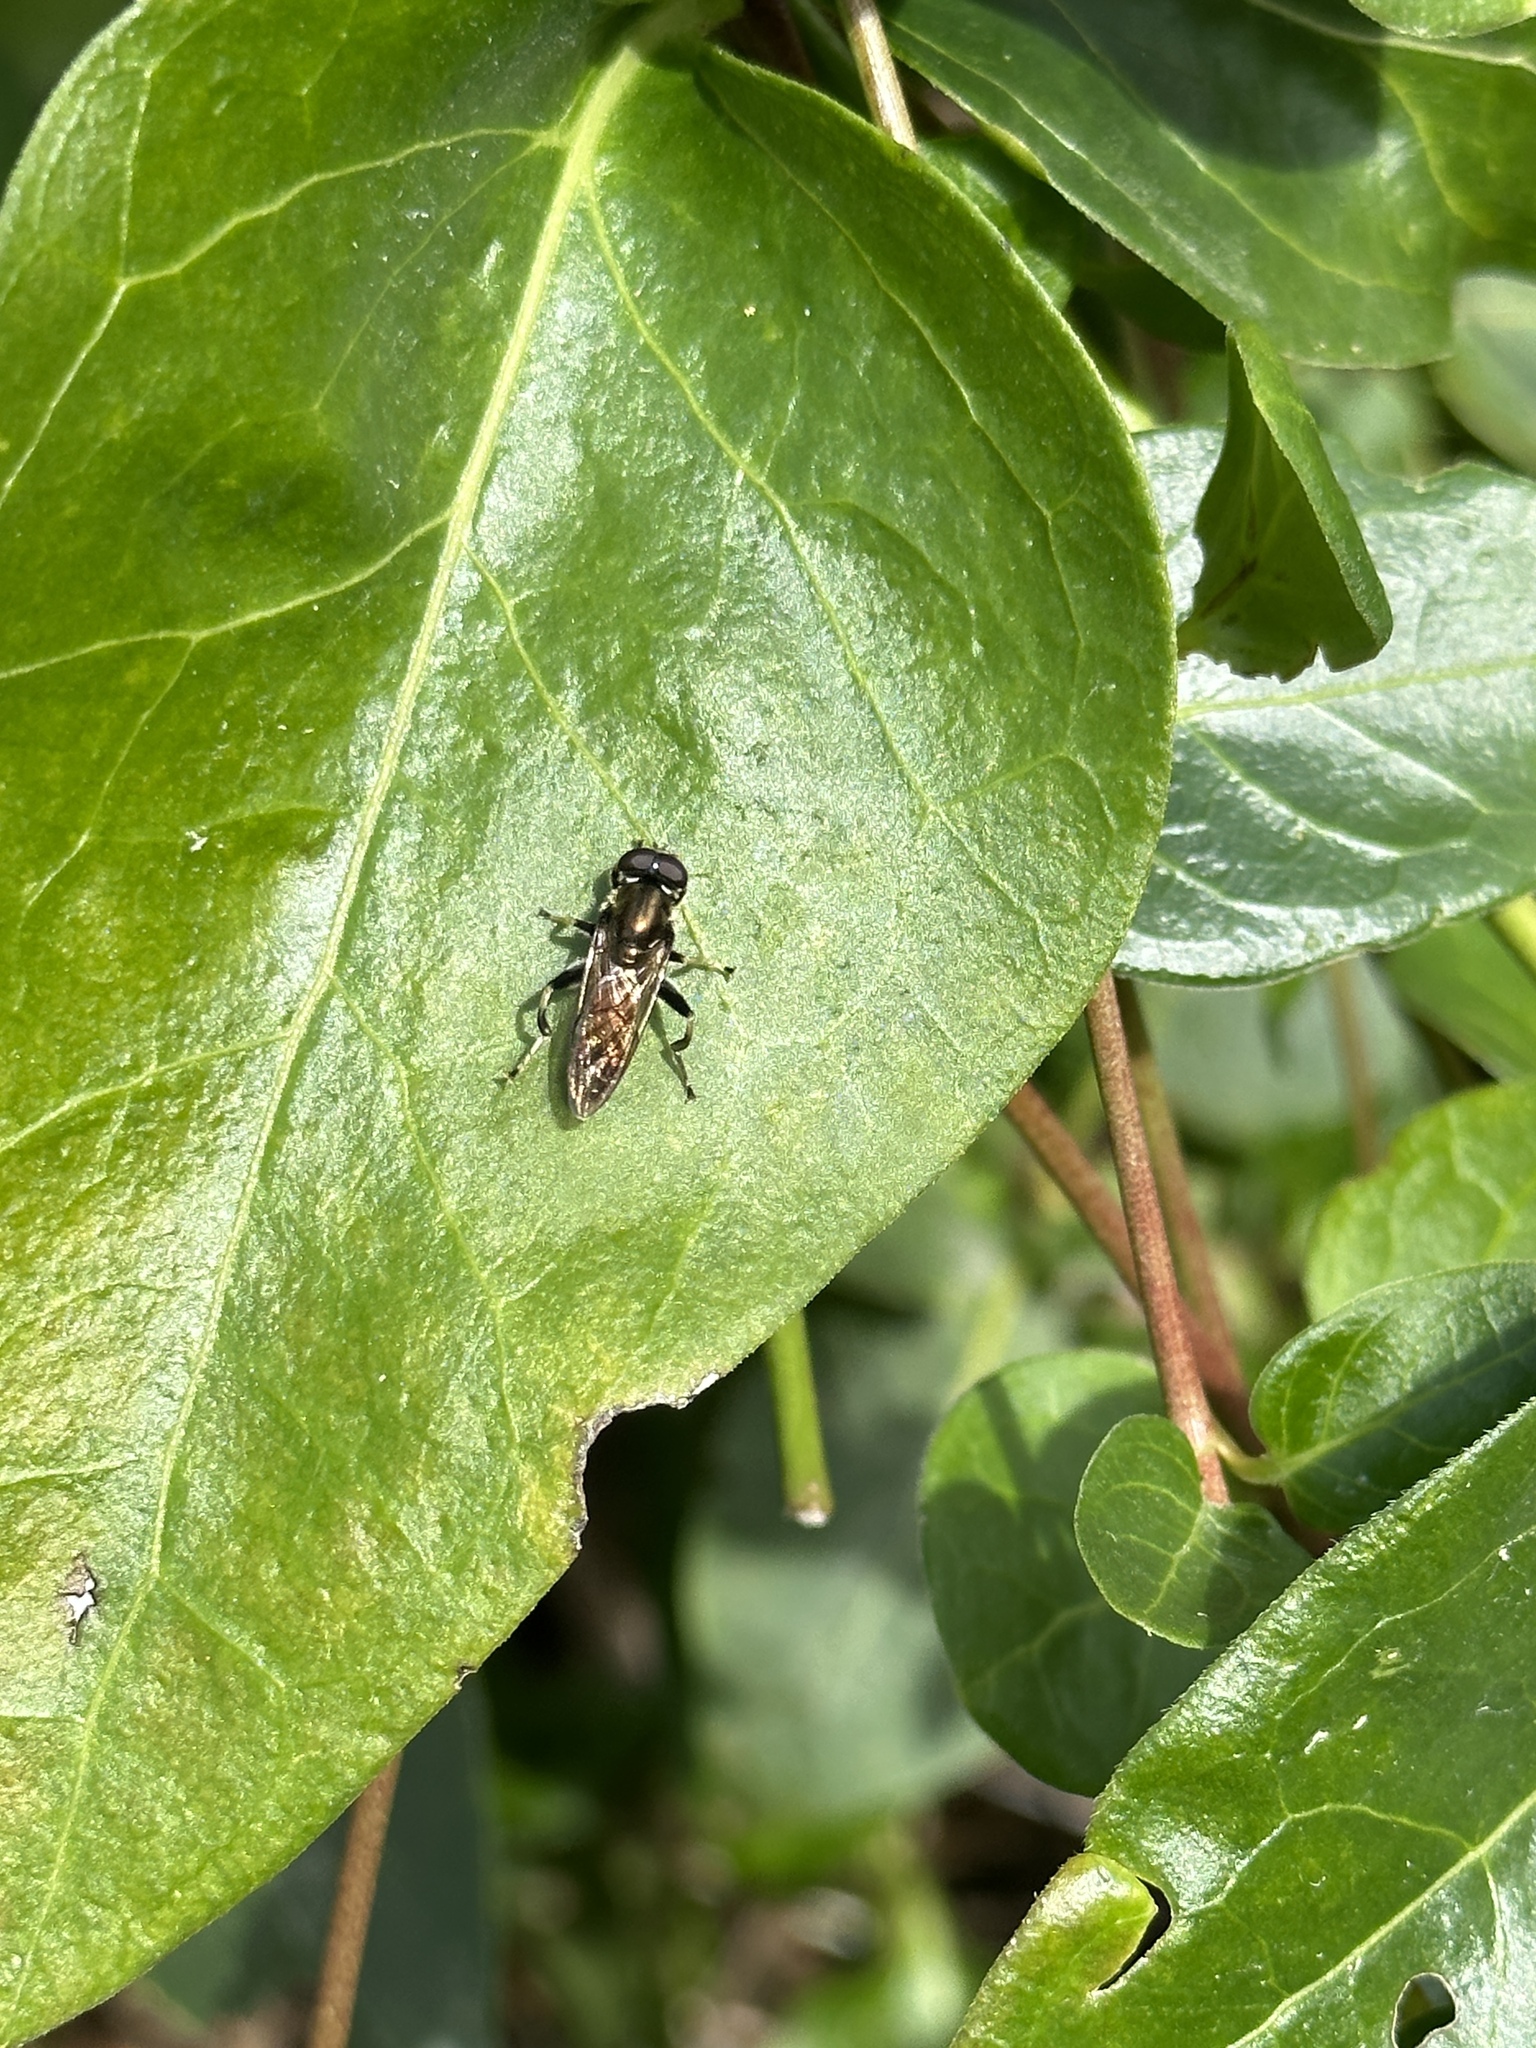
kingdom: Animalia
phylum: Arthropoda
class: Insecta
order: Diptera
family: Syrphidae
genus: Xylota
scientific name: Xylota segnis
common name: Brown-toed forest fly
